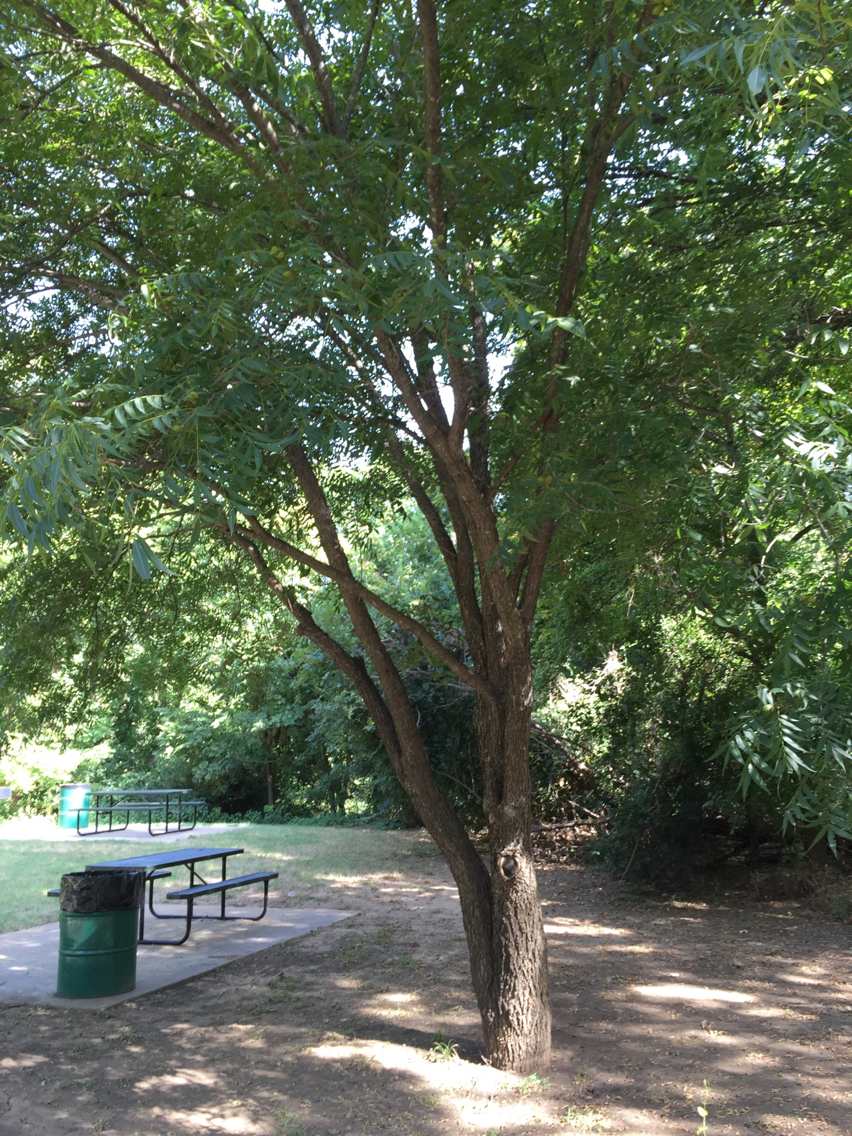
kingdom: Plantae
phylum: Tracheophyta
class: Magnoliopsida
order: Fagales
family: Juglandaceae
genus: Carya
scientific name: Carya illinoinensis
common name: Pecan
